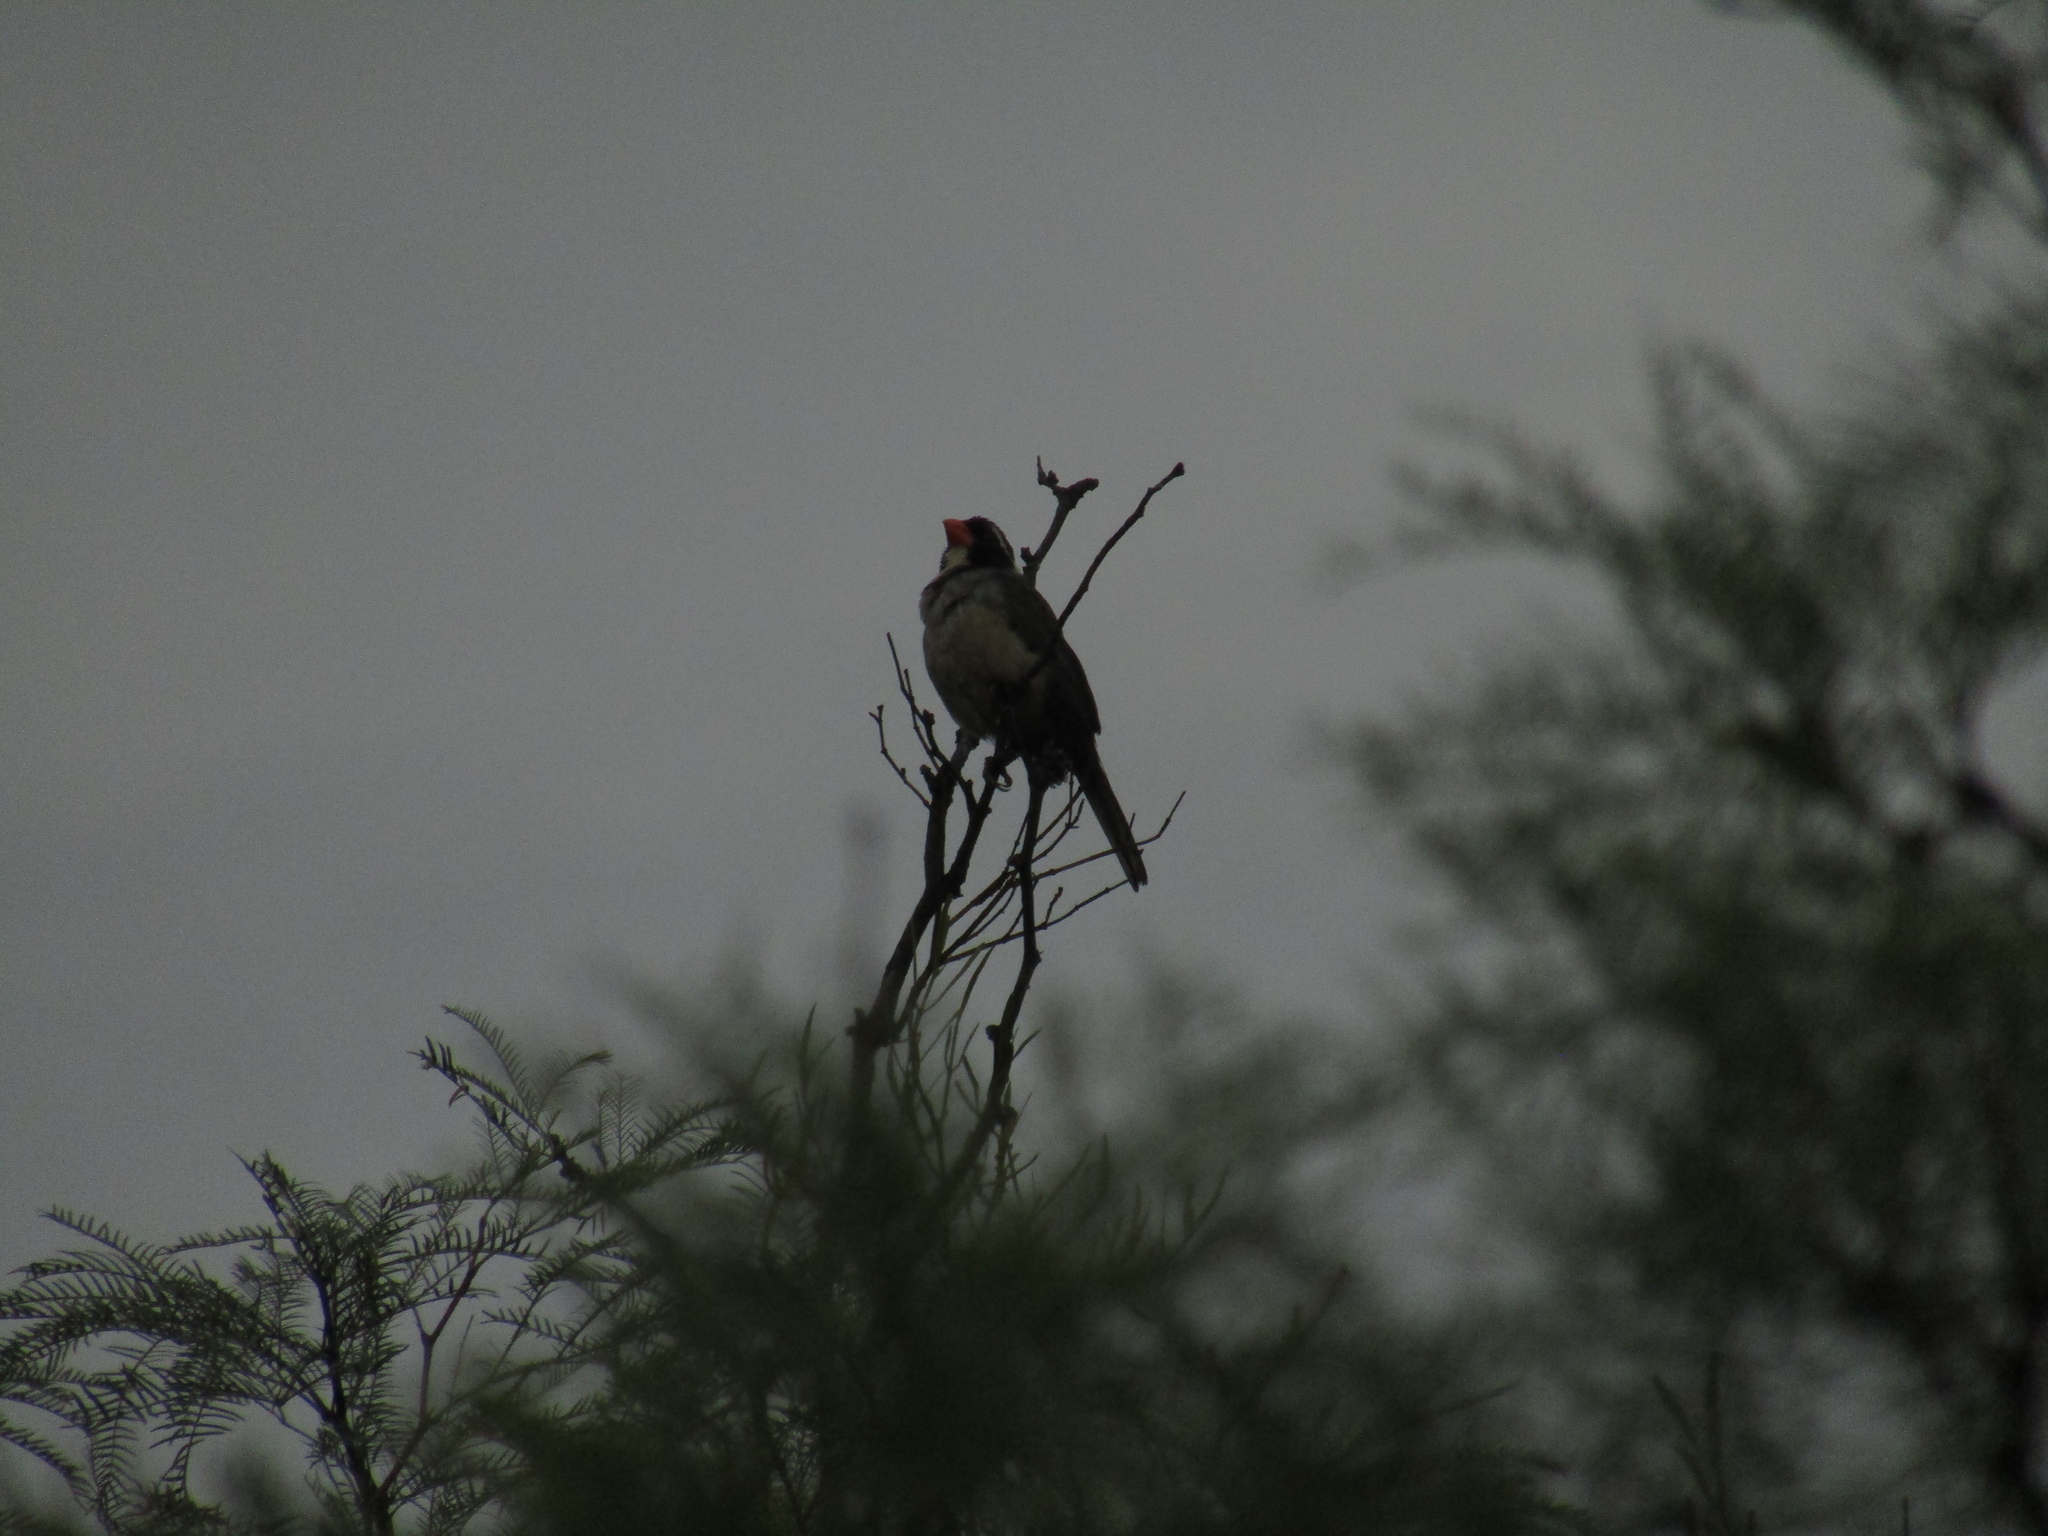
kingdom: Animalia
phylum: Chordata
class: Aves
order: Passeriformes
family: Thraupidae
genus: Saltator
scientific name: Saltator aurantiirostris
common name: Golden-billed saltator
